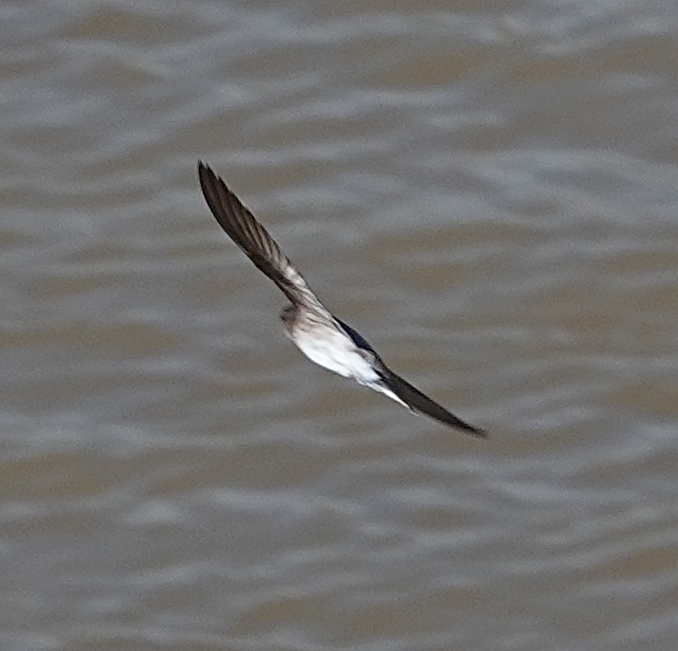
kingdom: Animalia
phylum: Chordata
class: Aves
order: Passeriformes
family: Hirundinidae
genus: Stelgidopteryx
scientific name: Stelgidopteryx serripennis
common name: Northern rough-winged swallow
